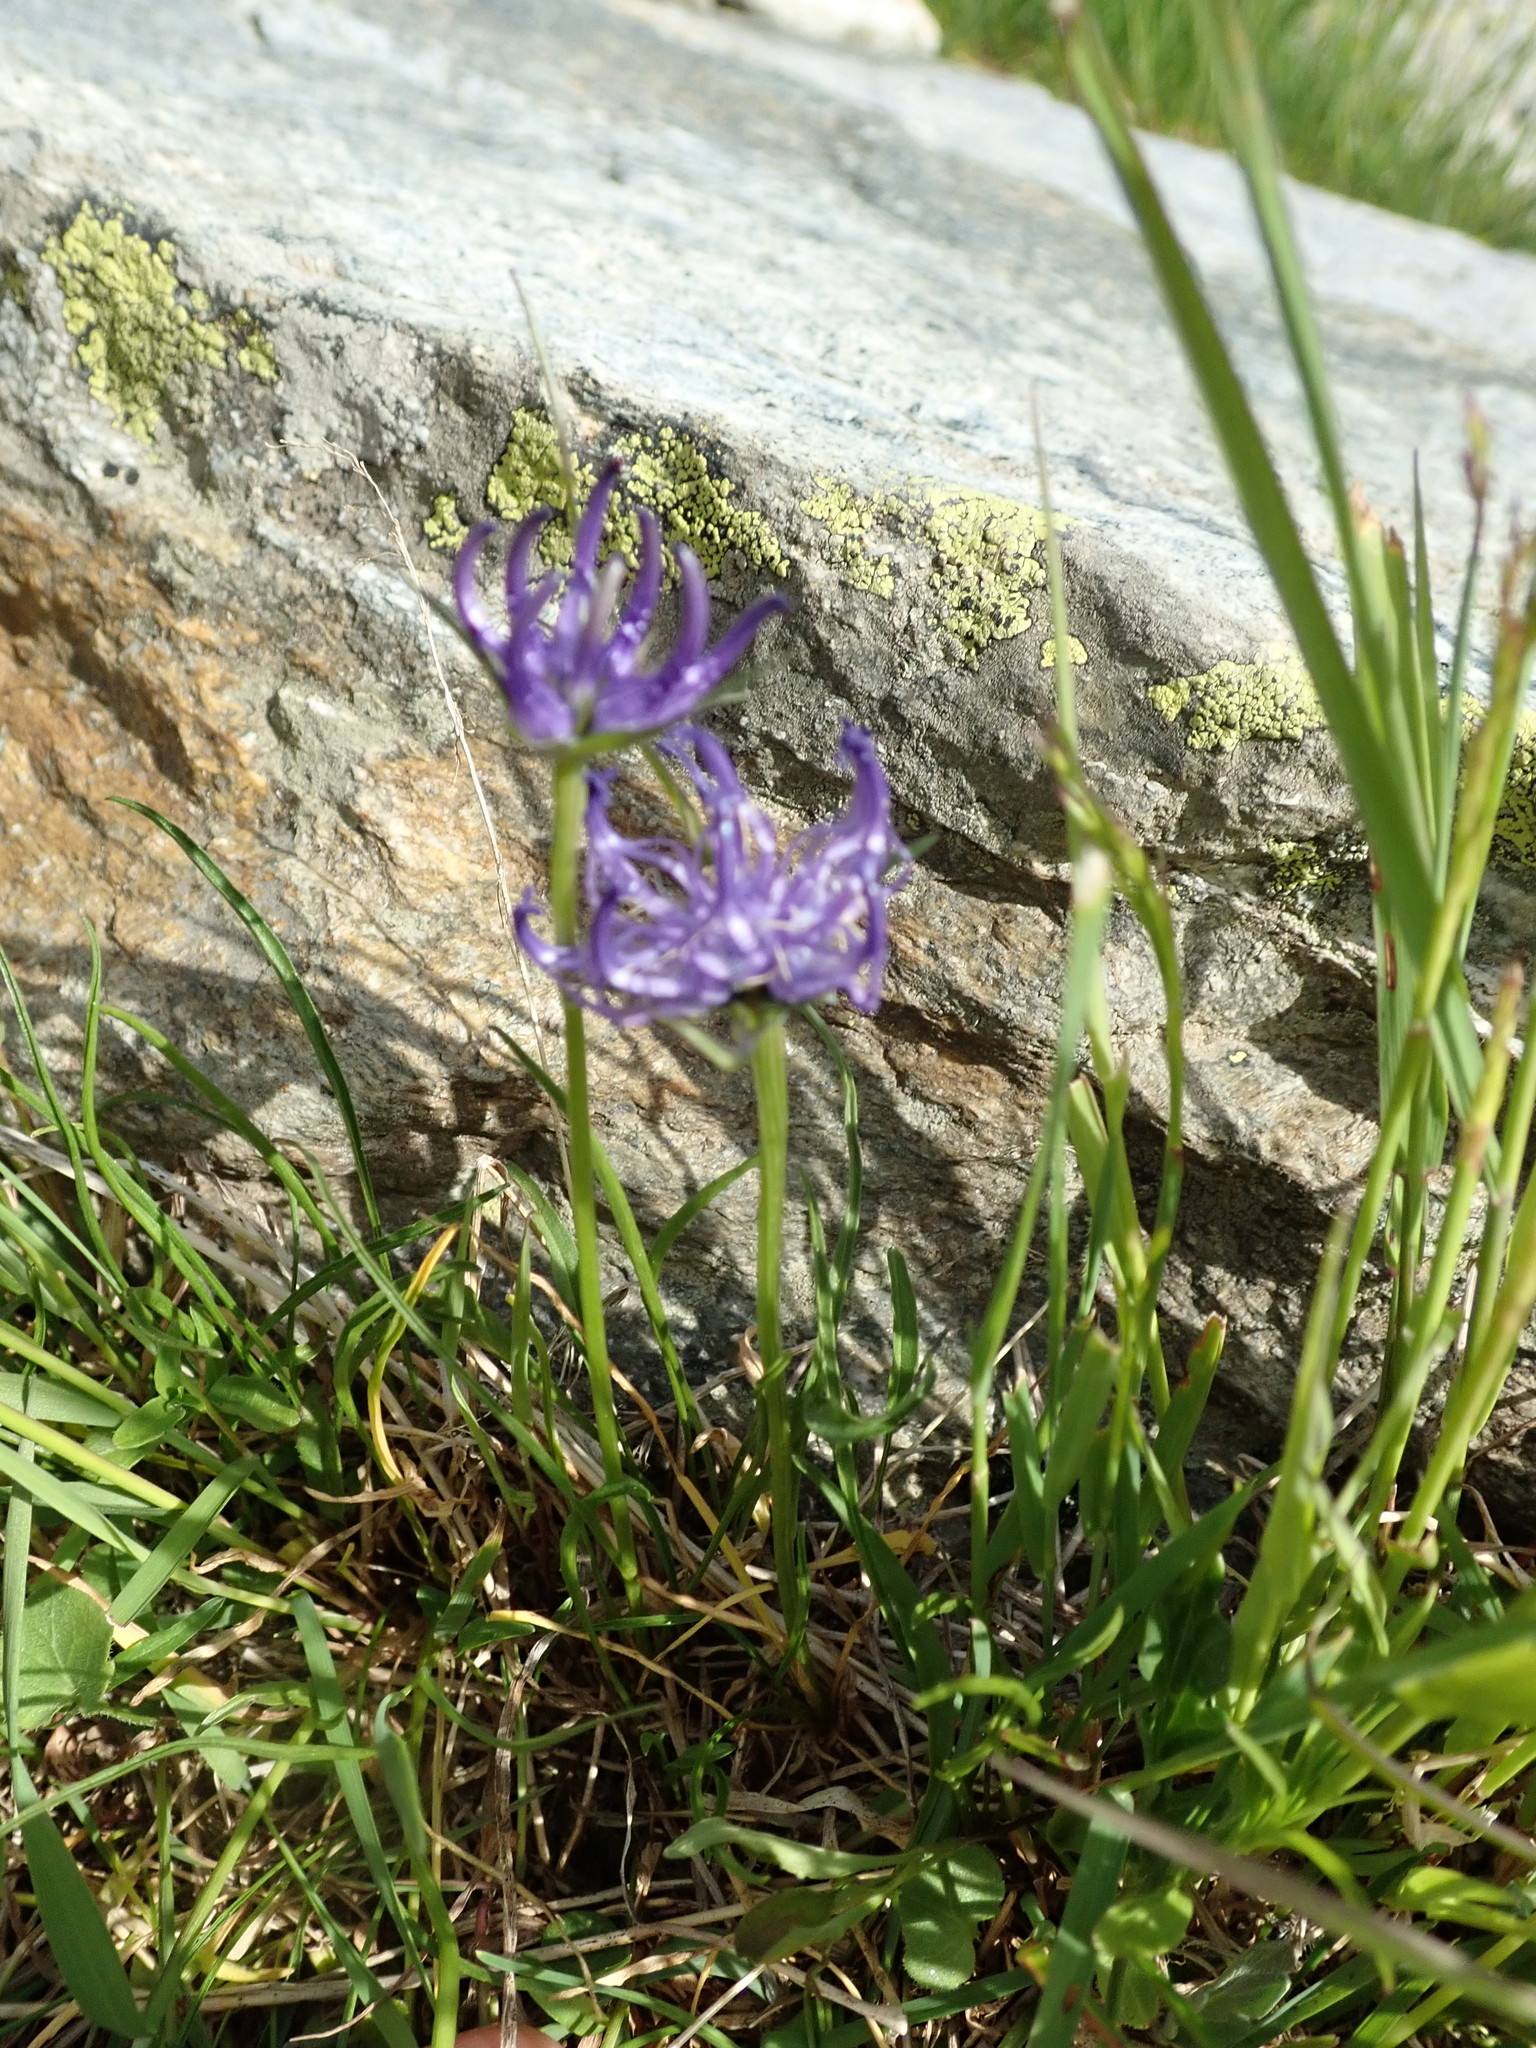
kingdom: Plantae
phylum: Tracheophyta
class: Magnoliopsida
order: Asterales
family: Campanulaceae
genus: Phyteuma
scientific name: Phyteuma hemisphaericum
